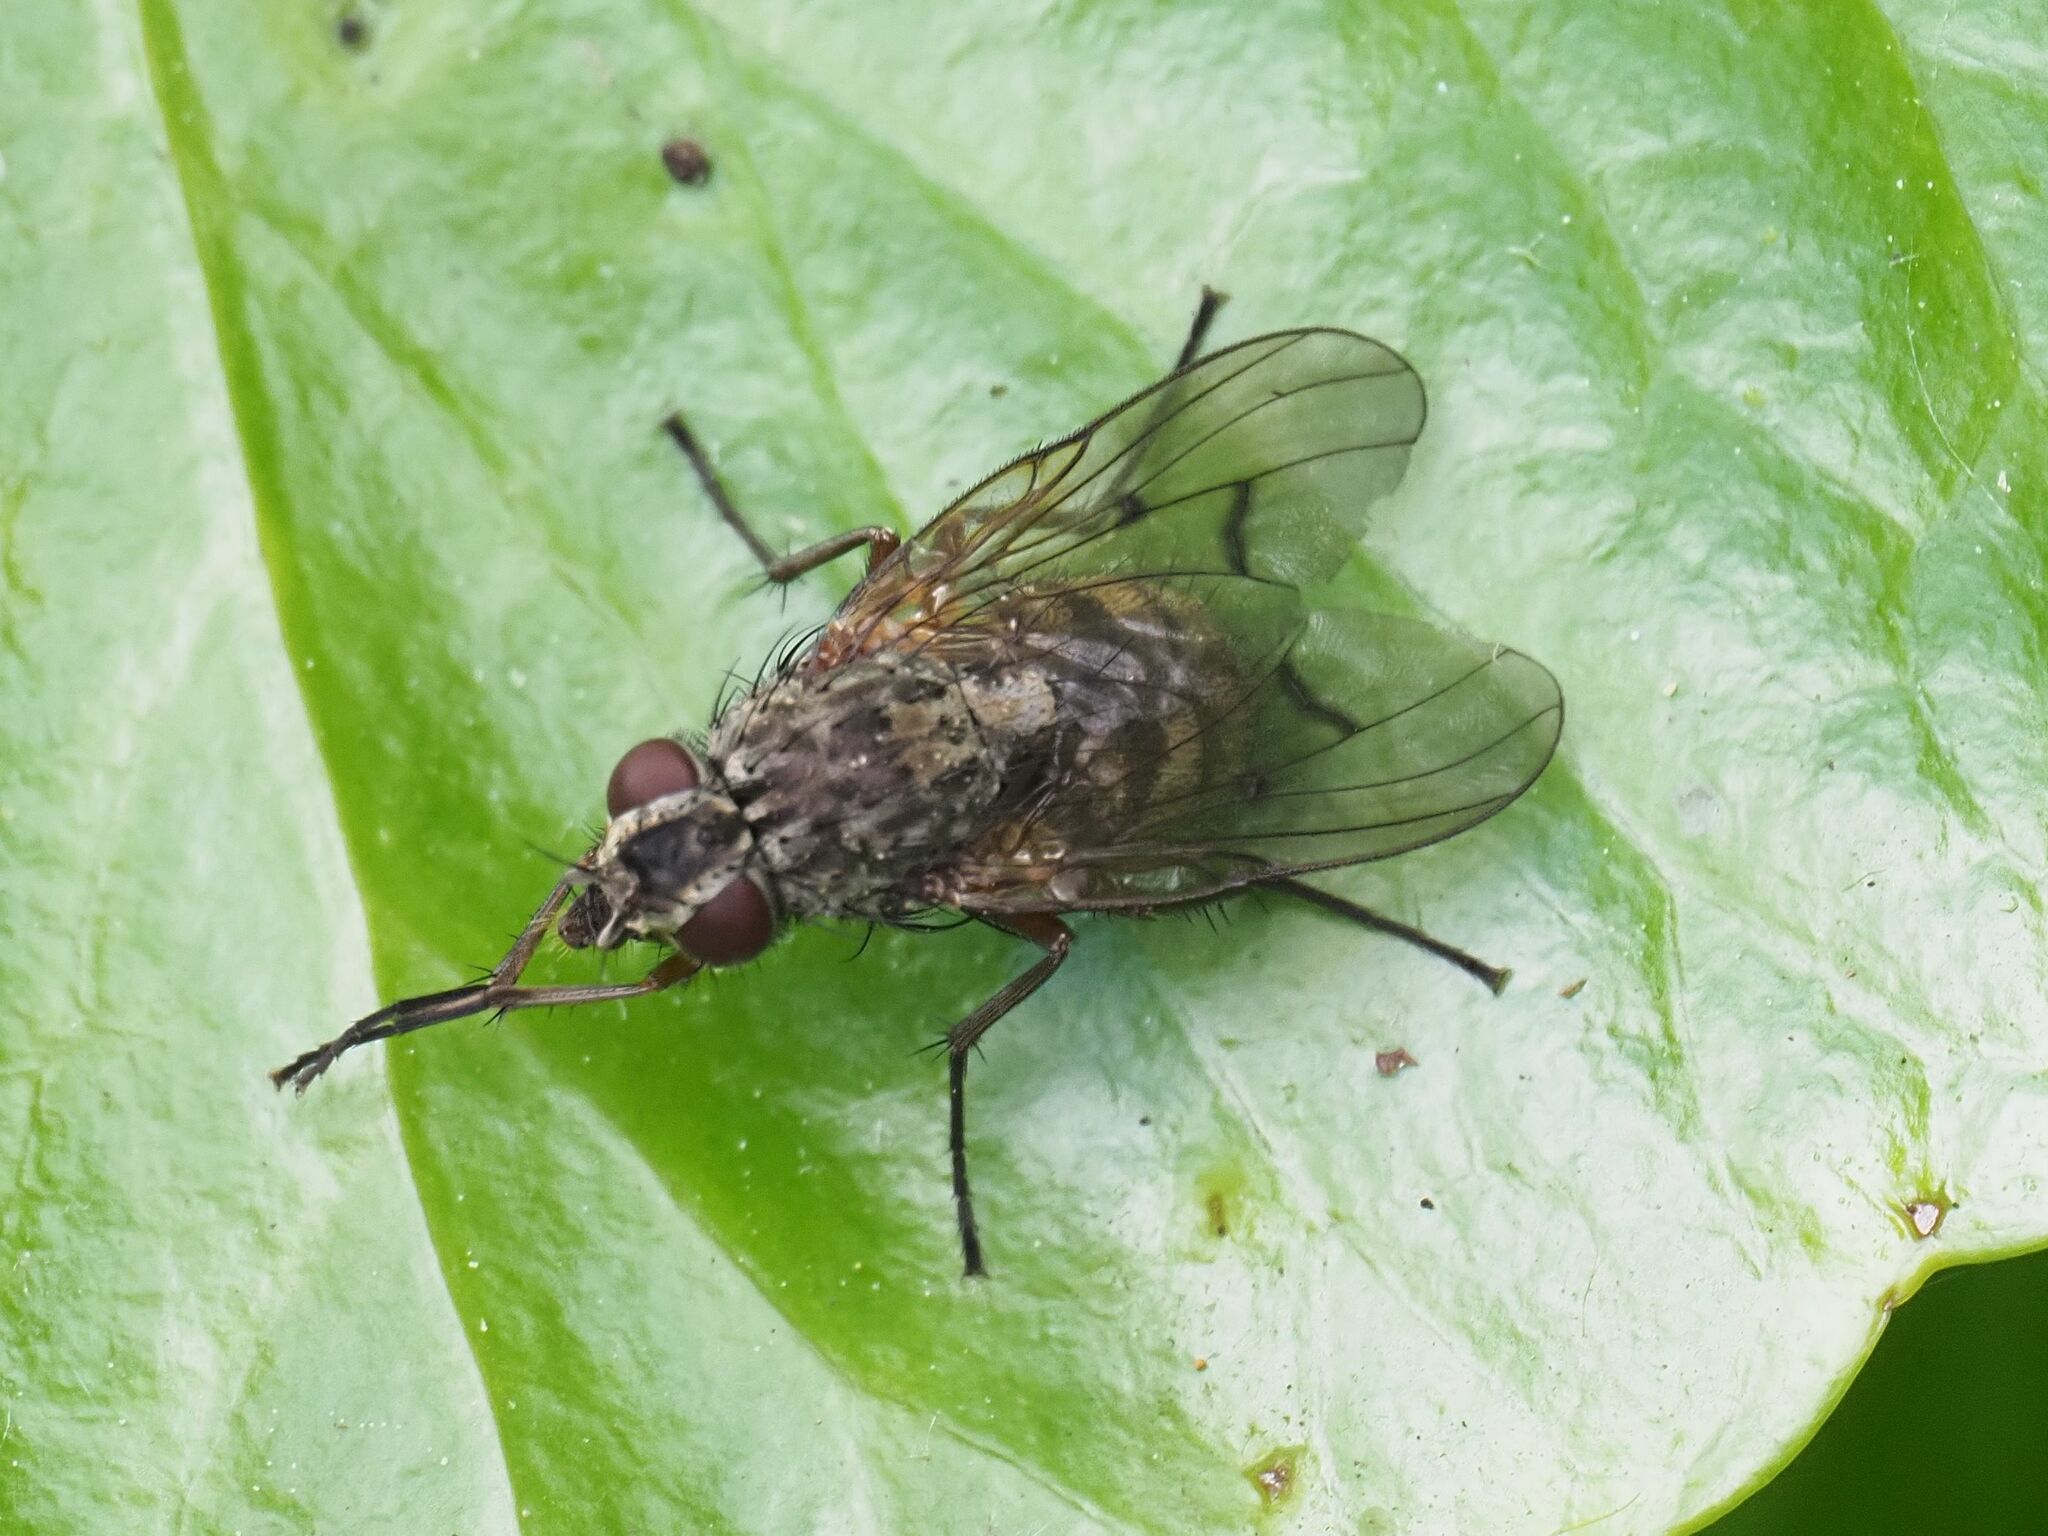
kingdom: Animalia
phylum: Arthropoda
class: Insecta
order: Diptera
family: Muscidae
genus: Phaonia
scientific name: Phaonia tuguriorum
